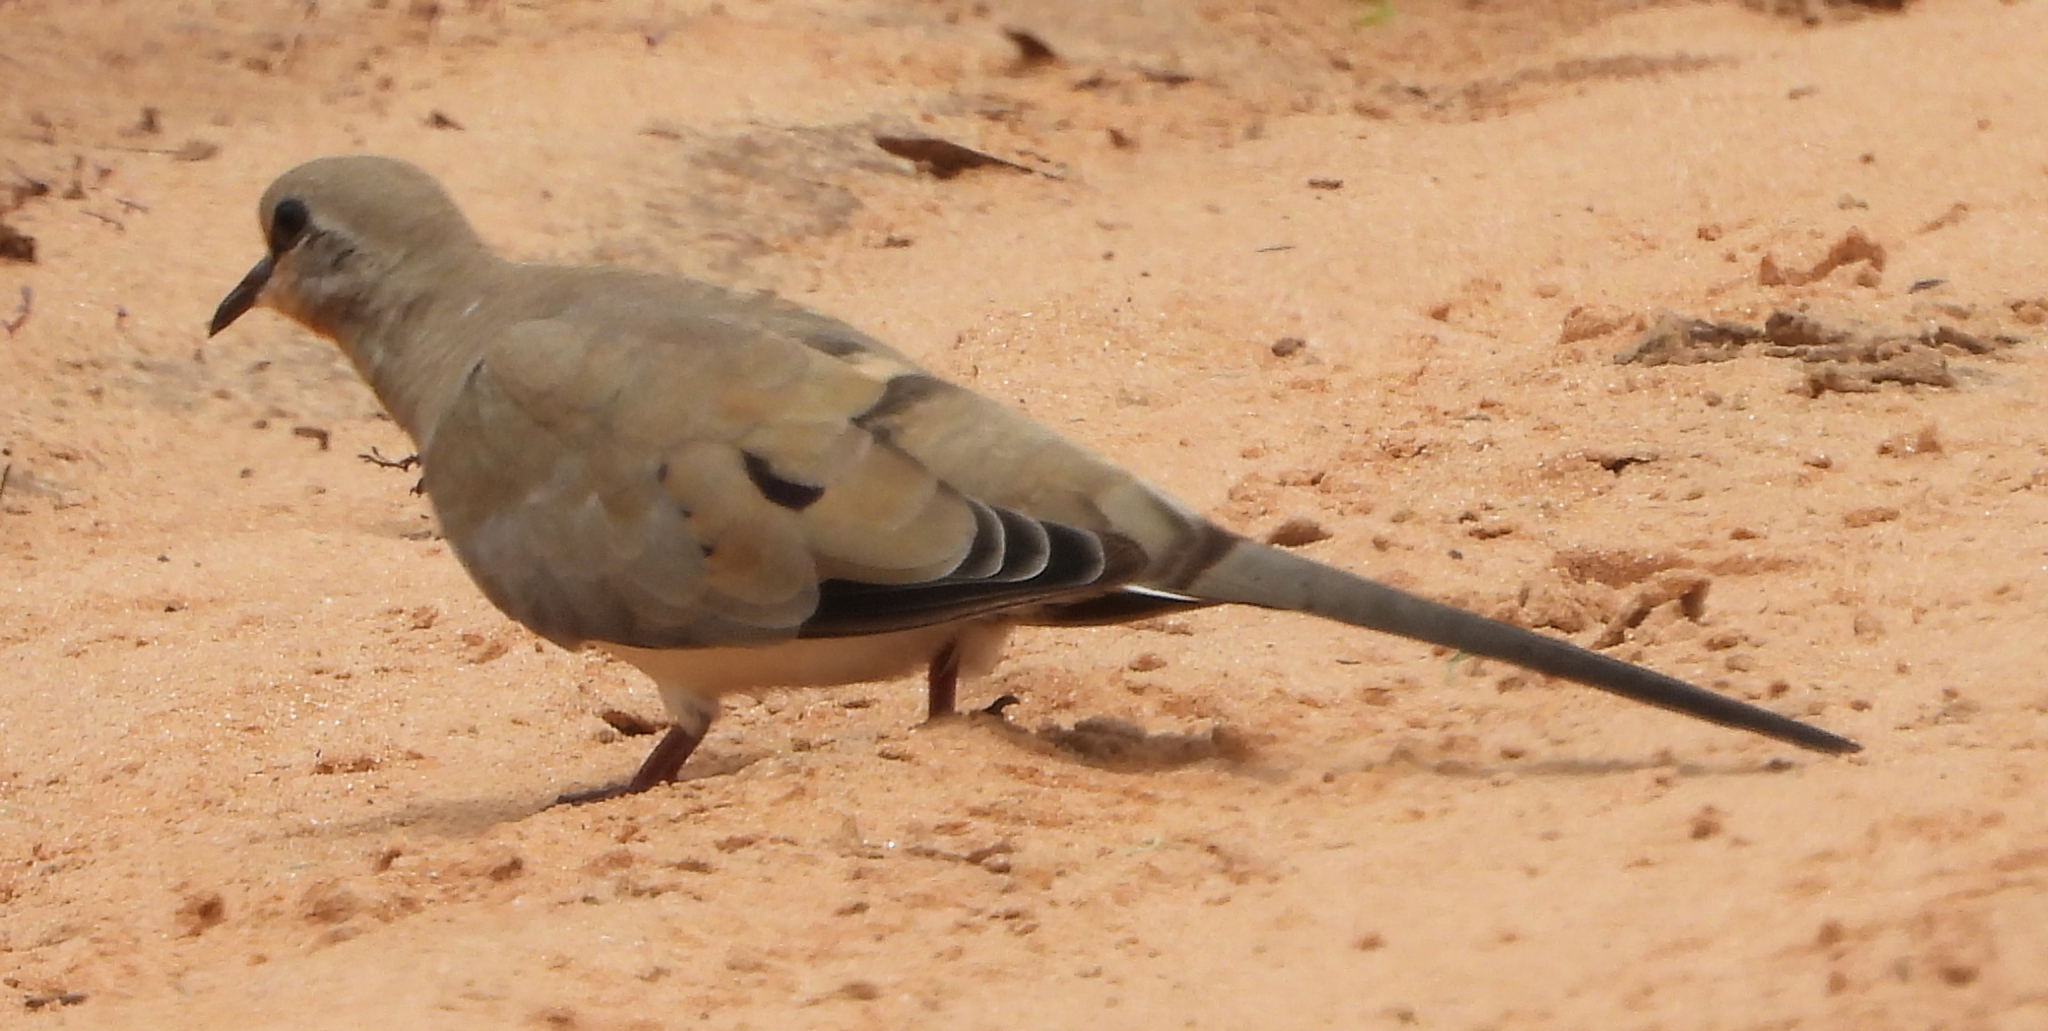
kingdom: Animalia
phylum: Chordata
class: Aves
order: Columbiformes
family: Columbidae
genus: Oena
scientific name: Oena capensis
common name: Namaqua dove
